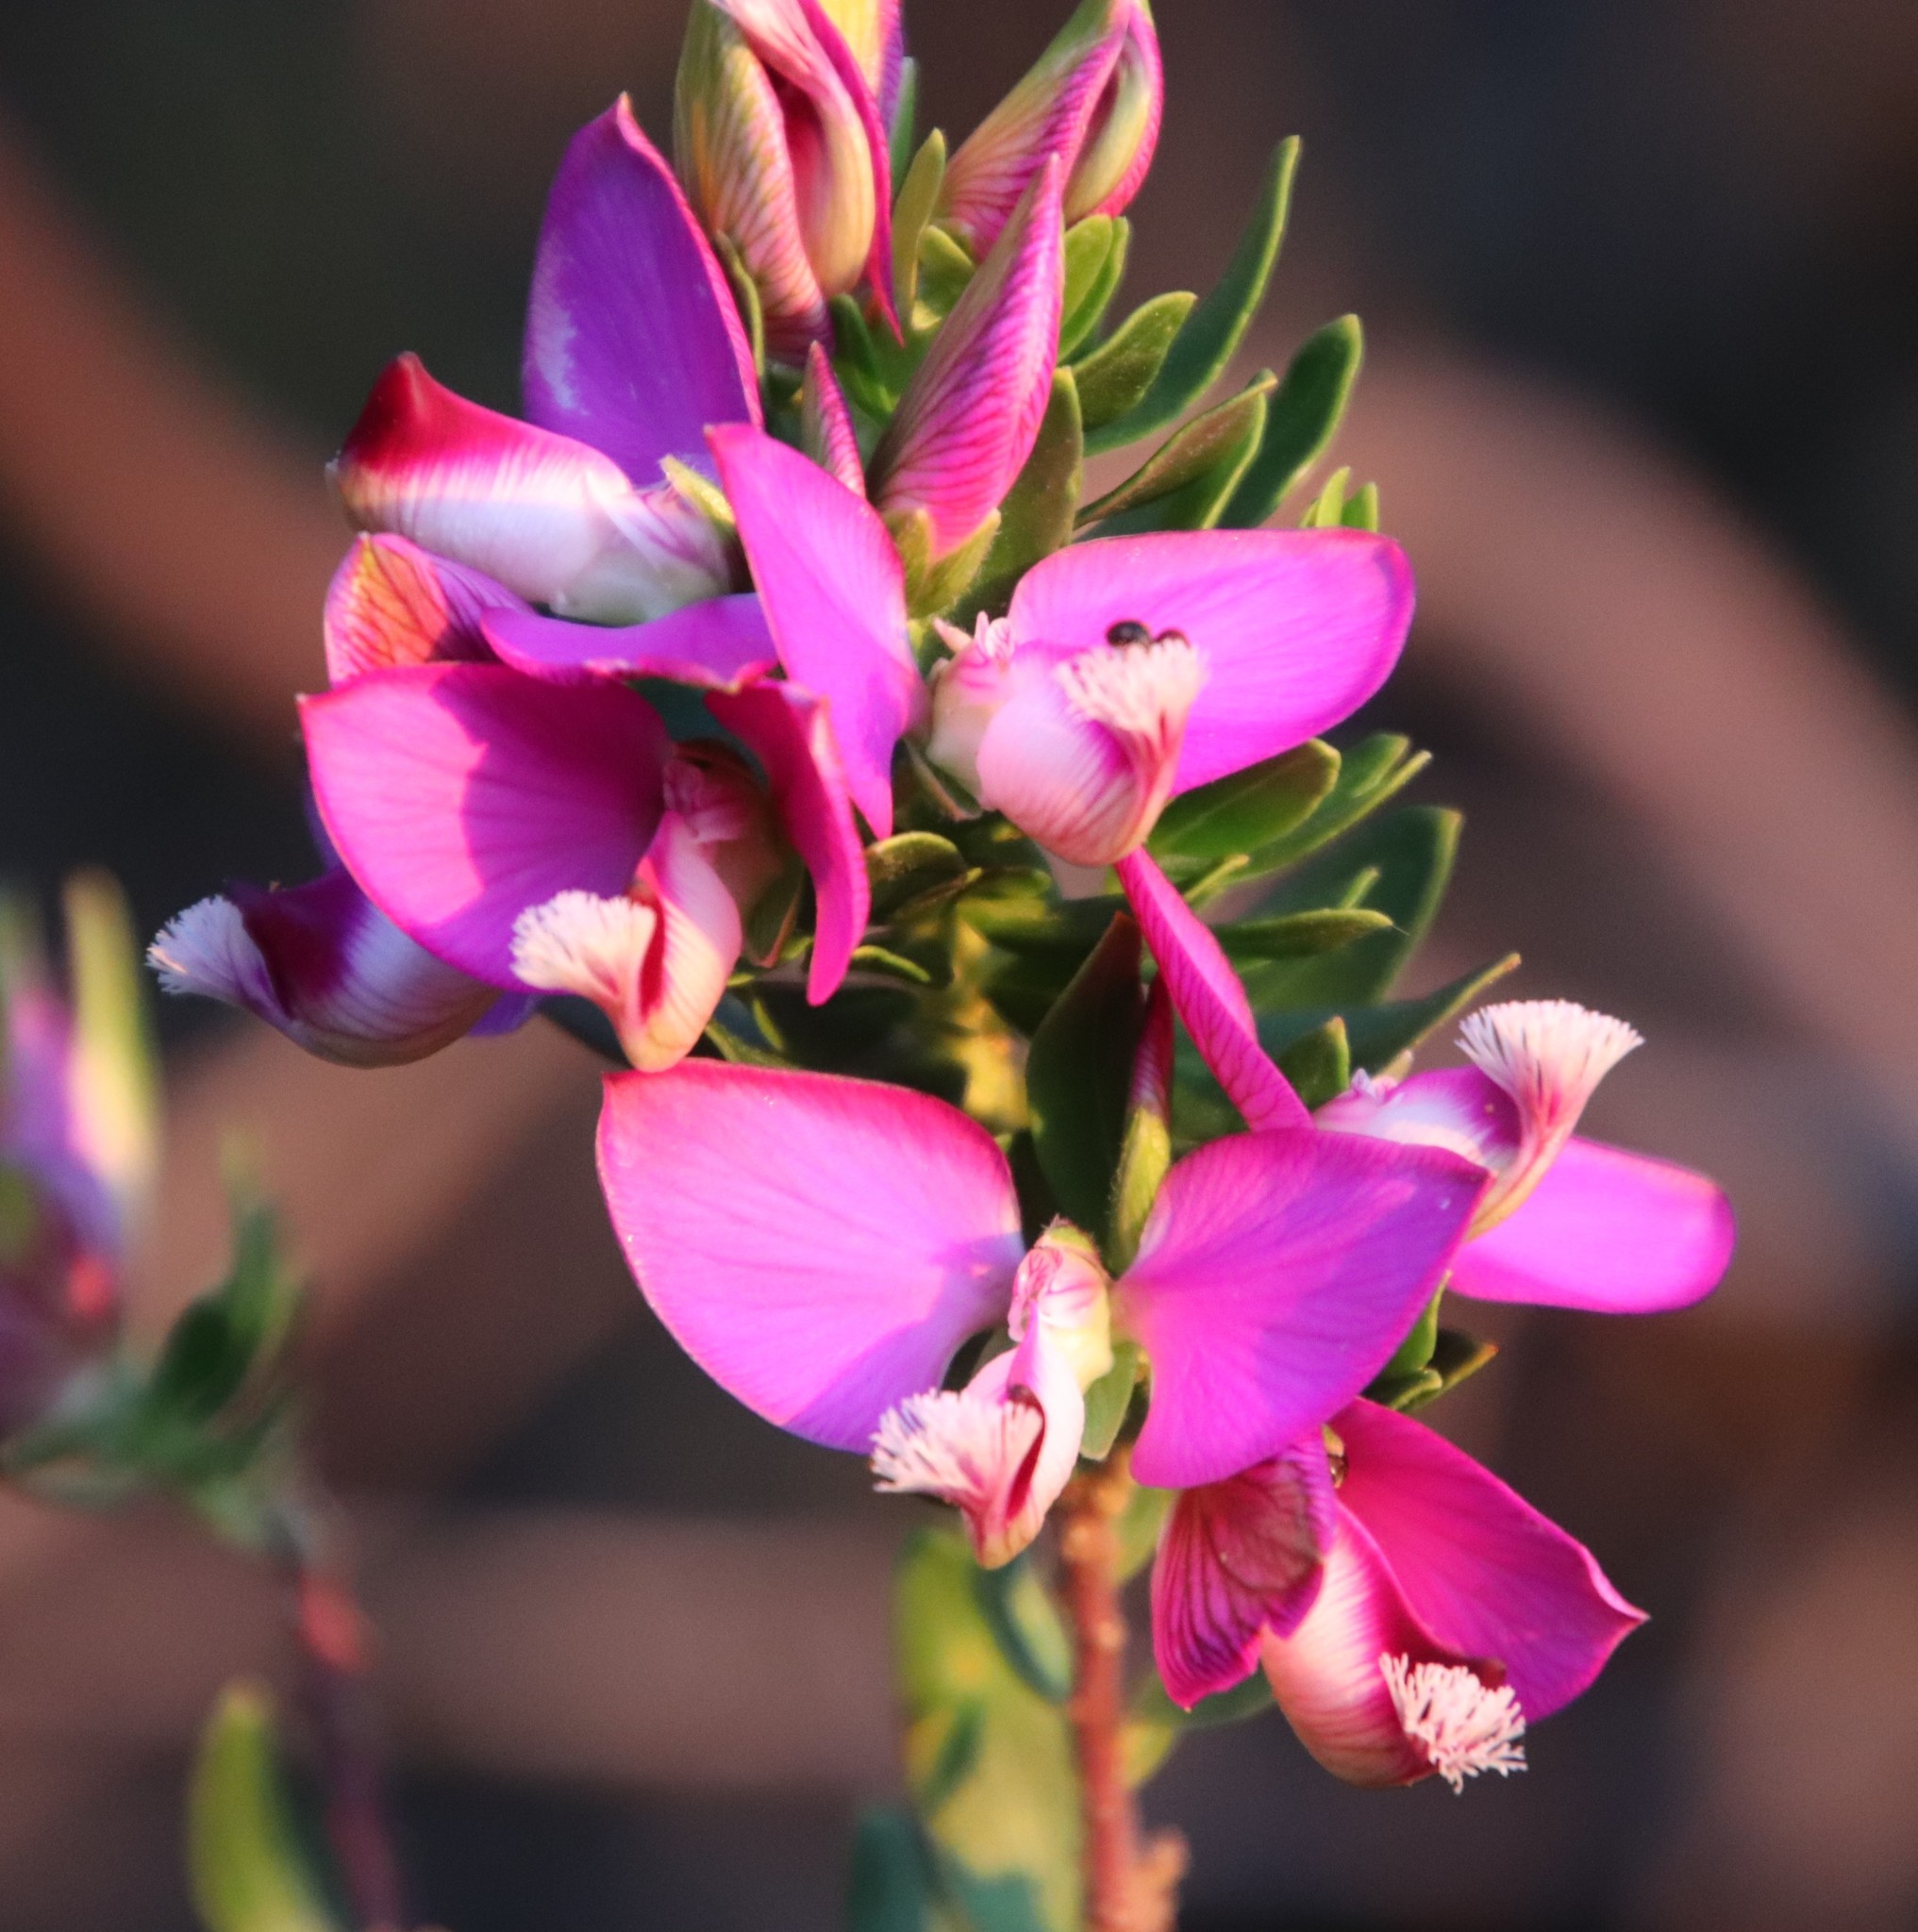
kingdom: Plantae
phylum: Tracheophyta
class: Magnoliopsida
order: Fabales
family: Polygalaceae
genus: Polygala
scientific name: Polygala myrtifolia
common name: Myrtle-leaf milkwort
